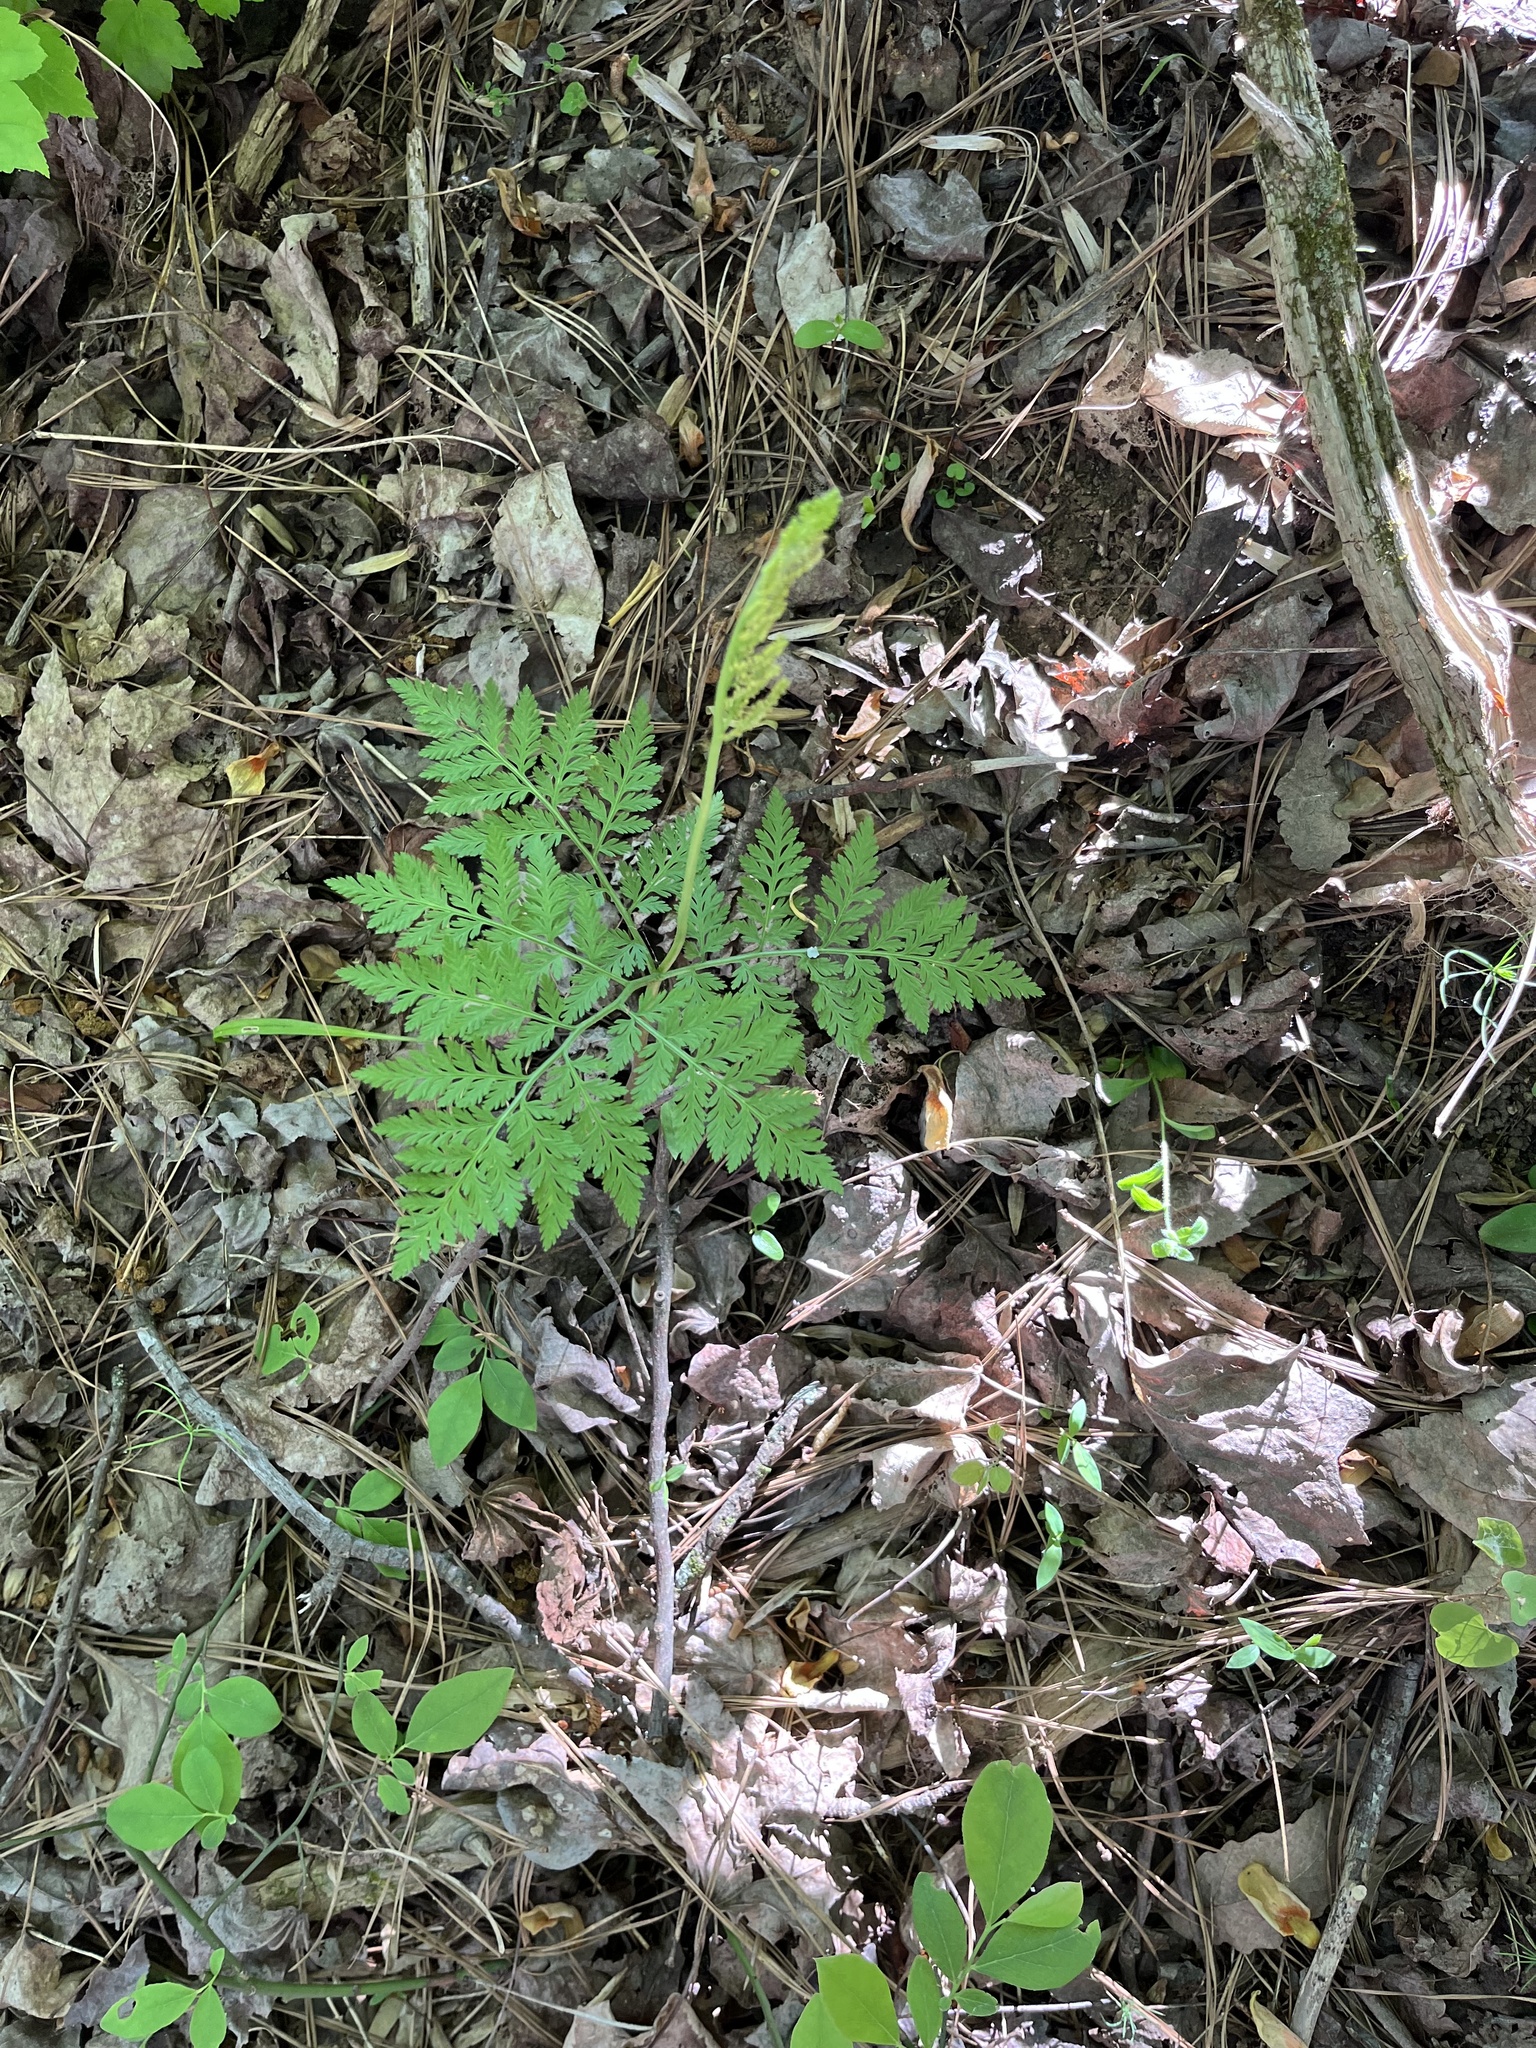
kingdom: Plantae
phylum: Tracheophyta
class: Polypodiopsida
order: Ophioglossales
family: Ophioglossaceae
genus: Botrypus
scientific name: Botrypus virginianus
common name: Common grapefern
